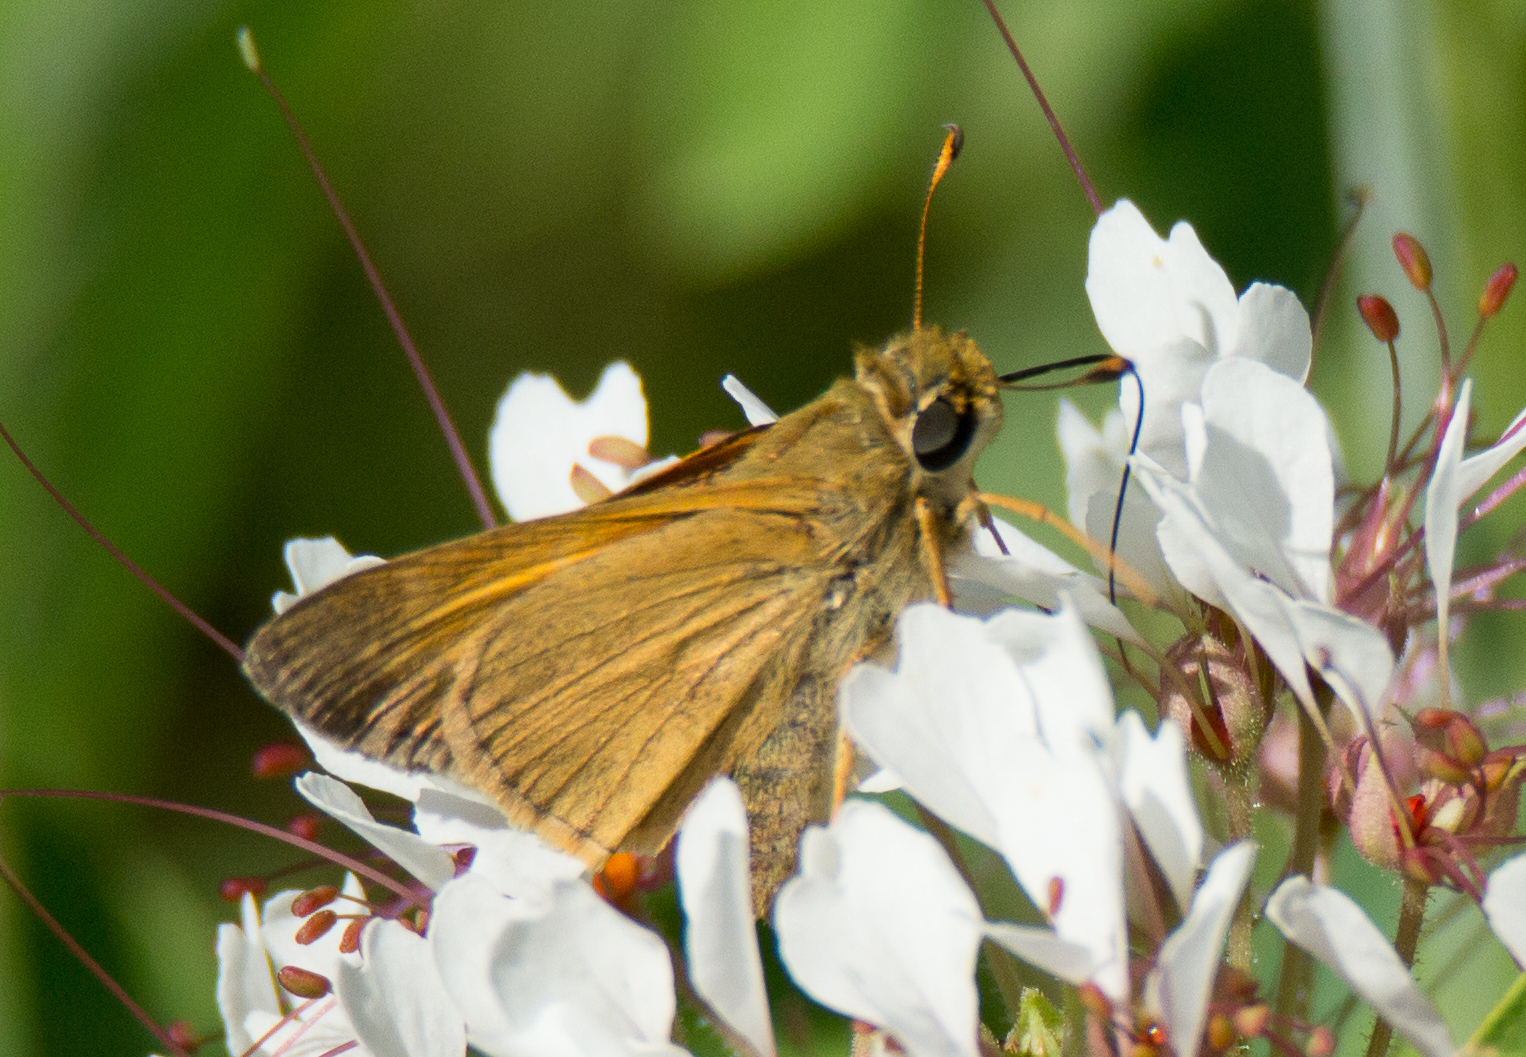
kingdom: Animalia
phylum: Arthropoda
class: Insecta
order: Lepidoptera
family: Hesperiidae
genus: Atalopedes
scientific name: Atalopedes
